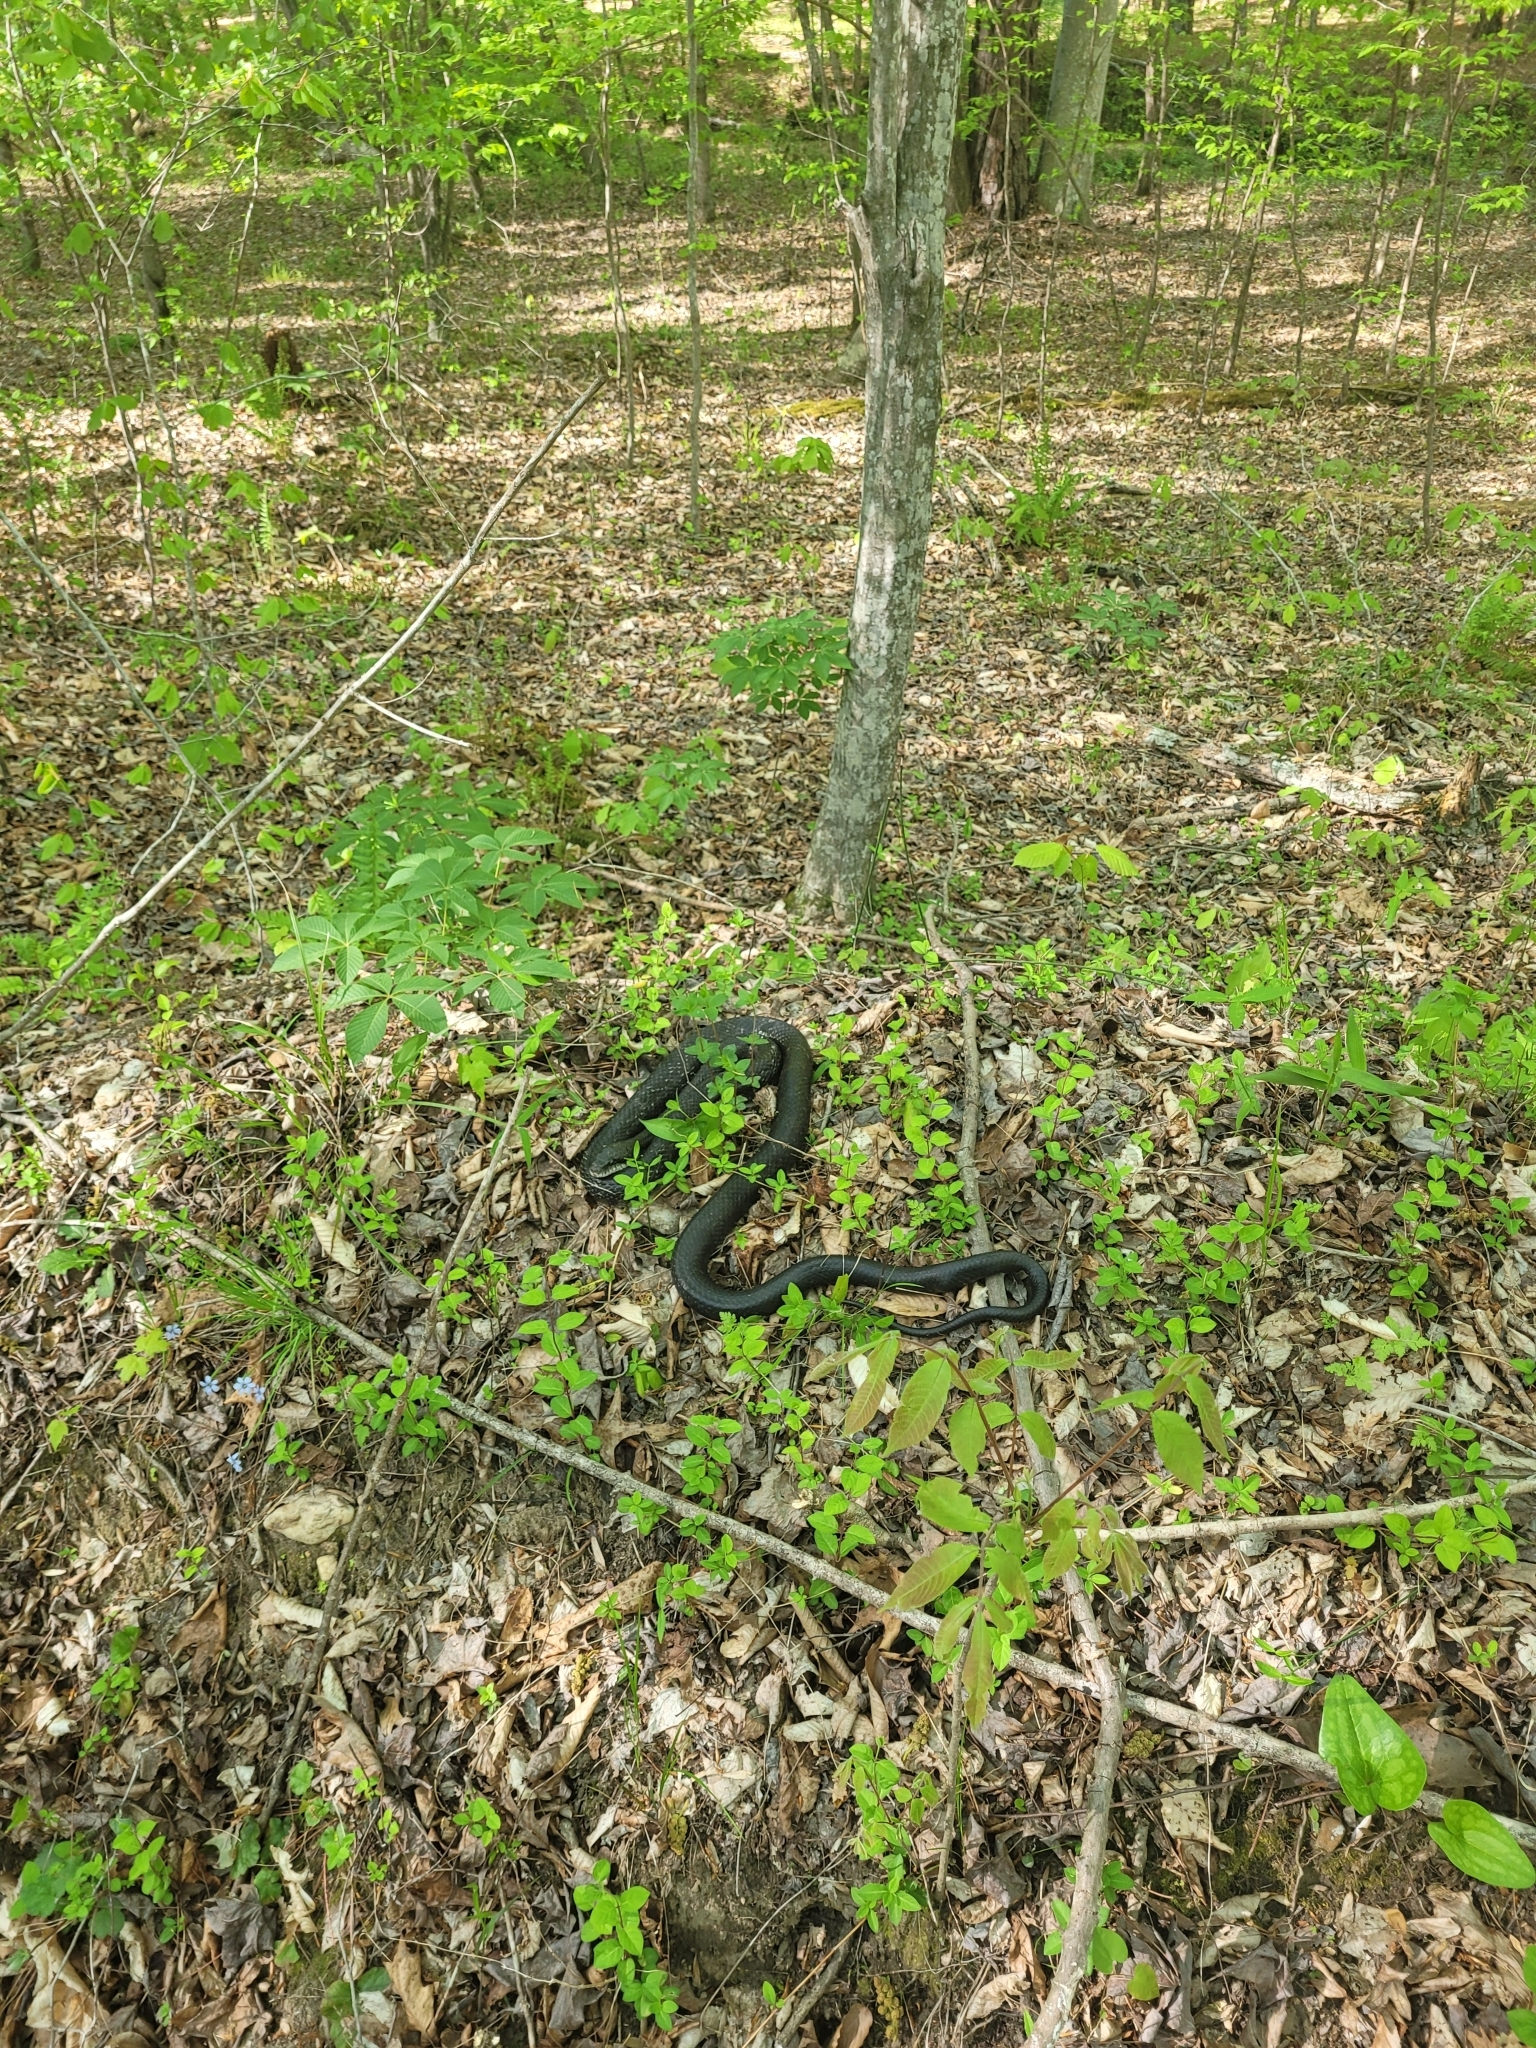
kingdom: Animalia
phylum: Chordata
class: Squamata
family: Colubridae
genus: Pantherophis
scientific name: Pantherophis alleghaniensis
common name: Eastern rat snake
